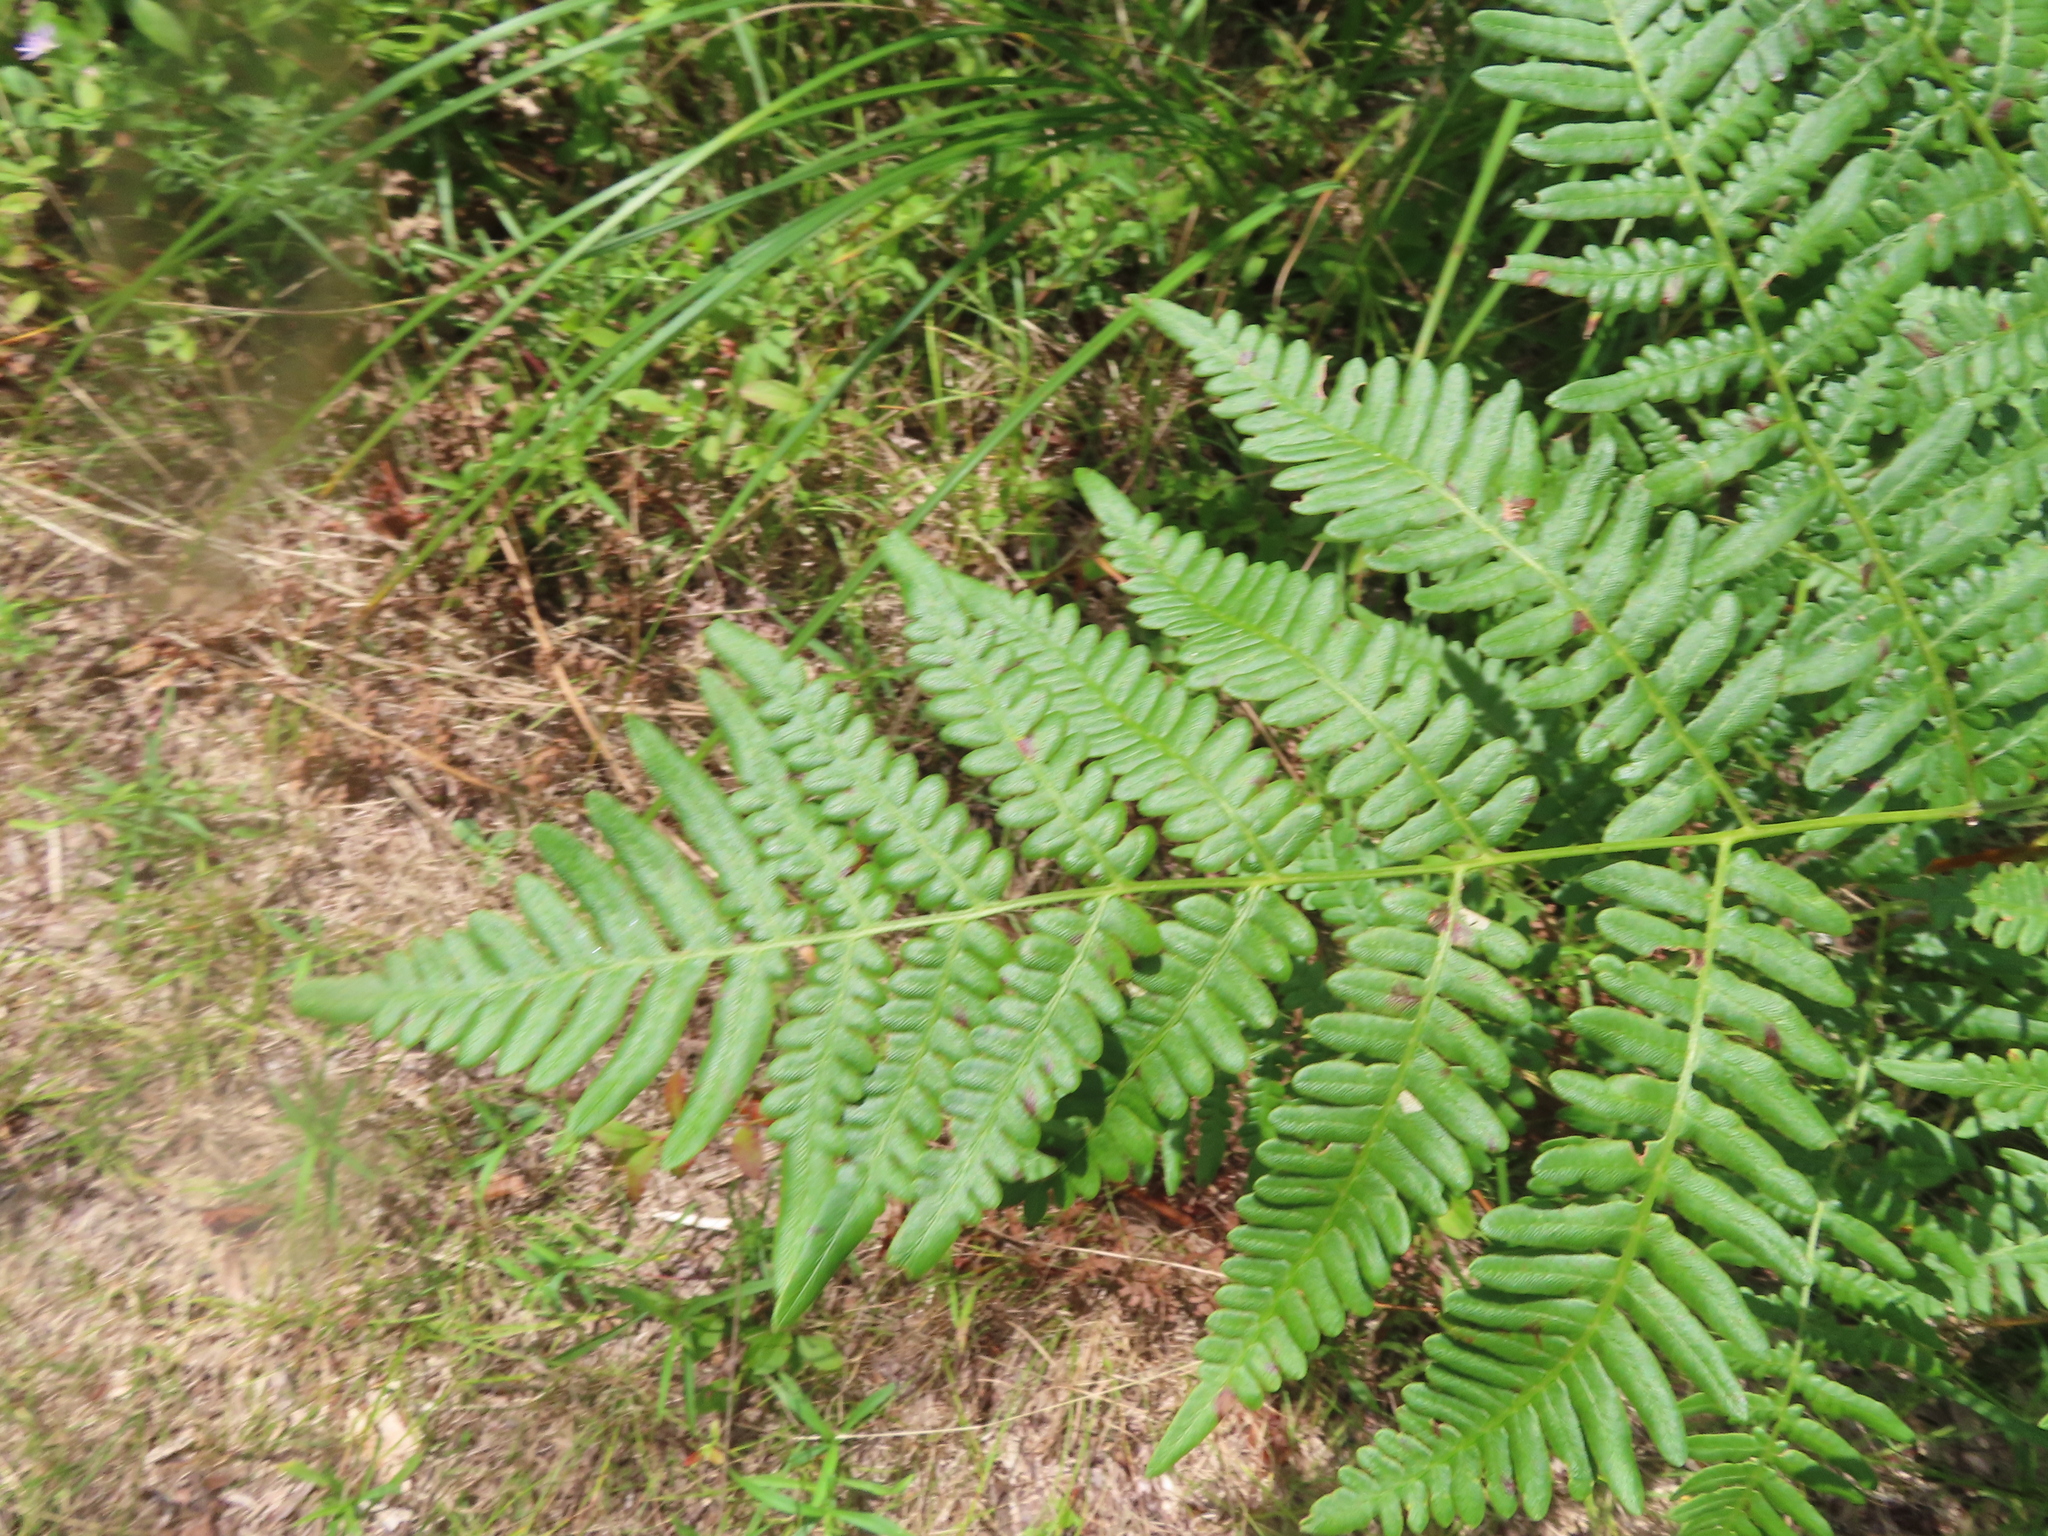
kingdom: Plantae
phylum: Tracheophyta
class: Polypodiopsida
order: Polypodiales
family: Dennstaedtiaceae
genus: Pteridium
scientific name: Pteridium aquilinum
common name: Bracken
